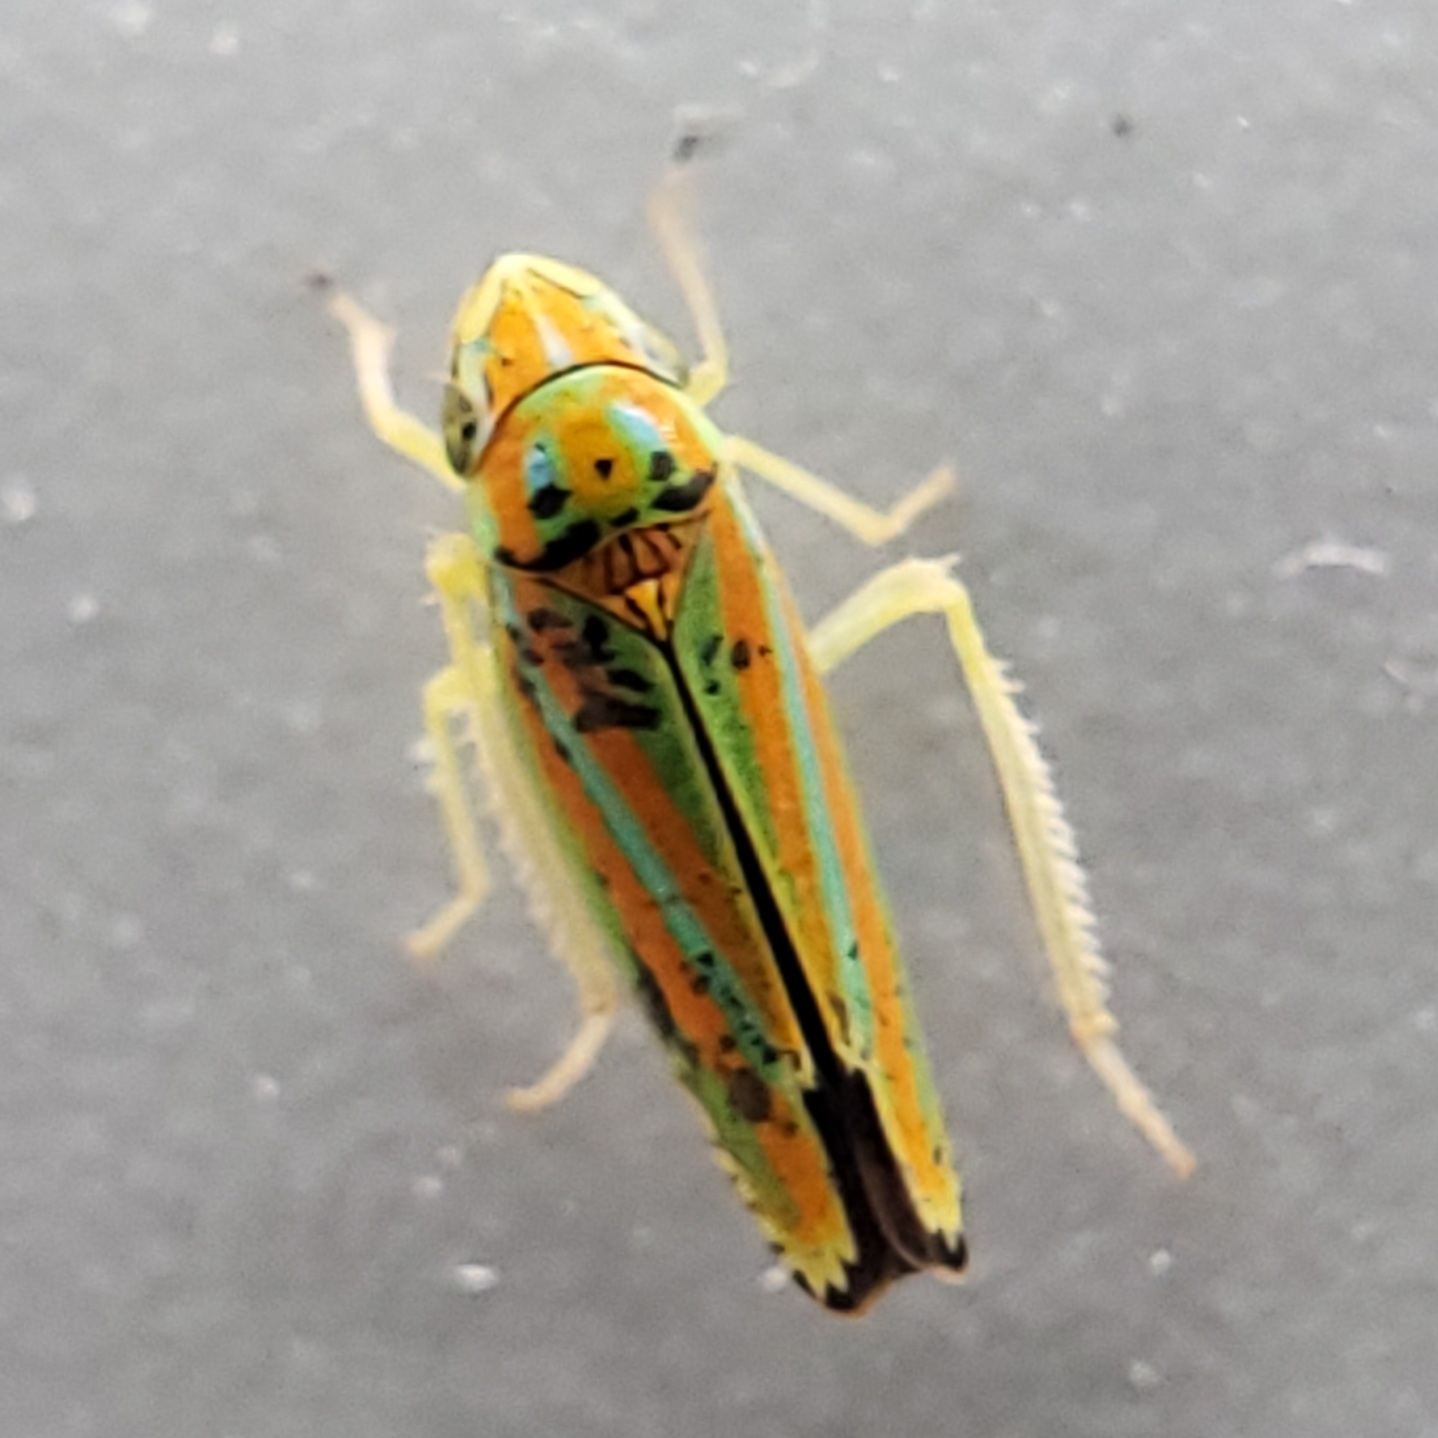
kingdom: Animalia
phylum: Arthropoda
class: Insecta
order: Hemiptera
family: Cicadellidae
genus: Graphocephala
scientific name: Graphocephala versuta
